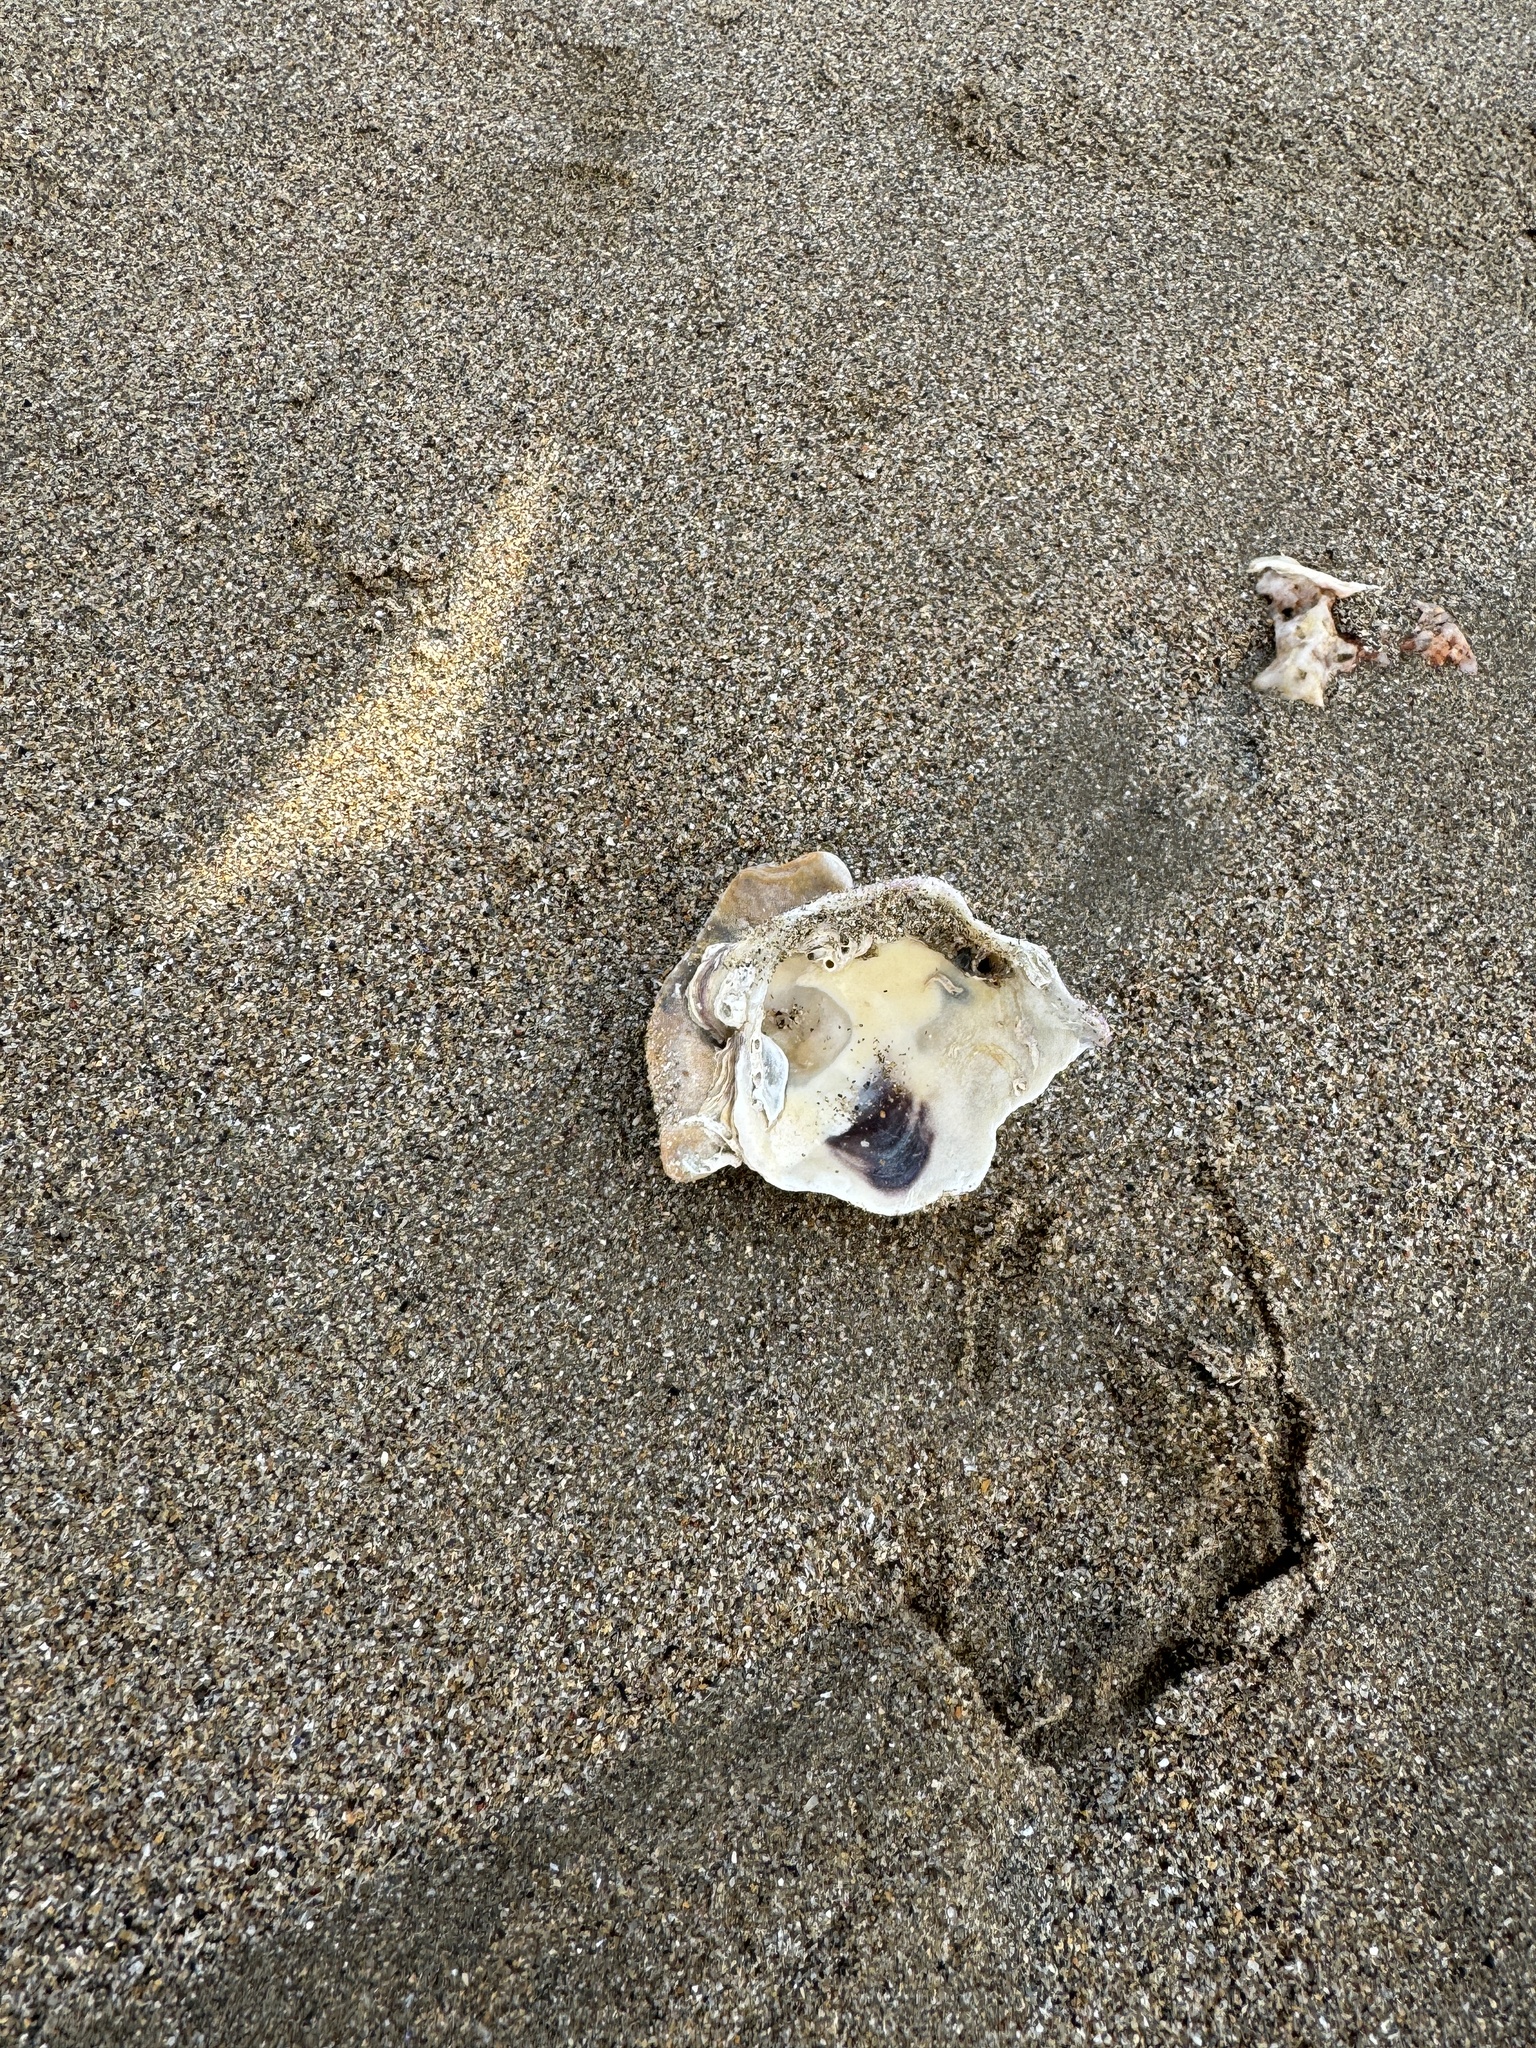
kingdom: Animalia
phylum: Mollusca
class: Bivalvia
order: Ostreida
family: Ostreidae
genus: Magallana
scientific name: Magallana gigas
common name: Pacific oyster
